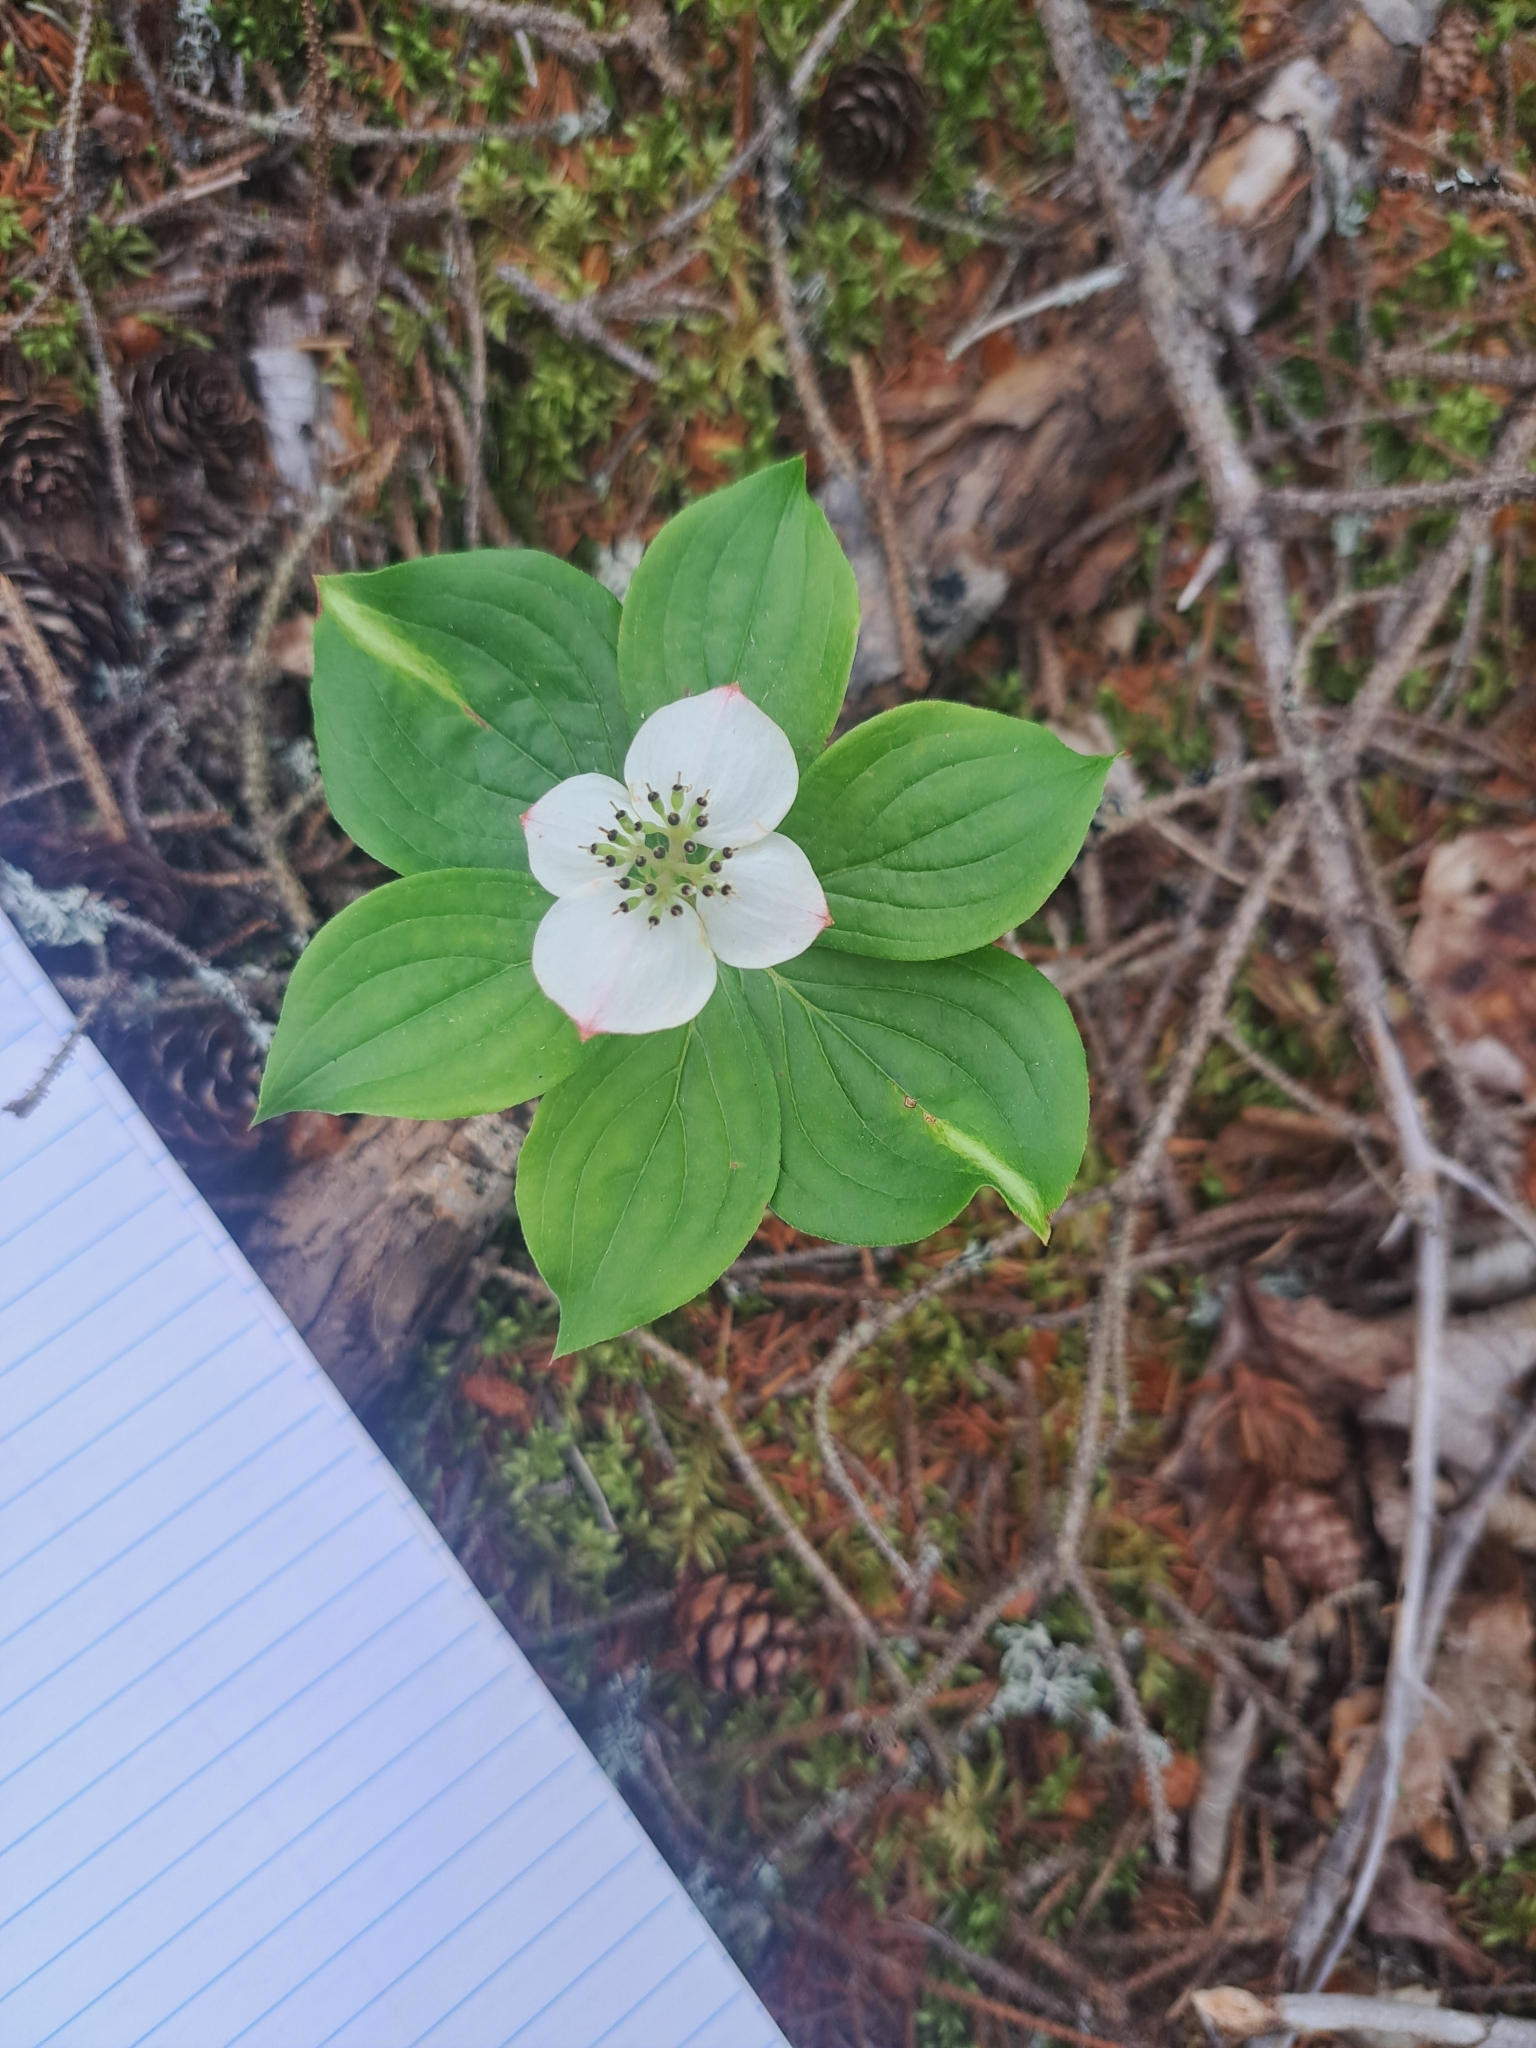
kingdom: Plantae
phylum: Tracheophyta
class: Magnoliopsida
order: Cornales
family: Cornaceae
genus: Cornus
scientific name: Cornus canadensis
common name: Creeping dogwood
